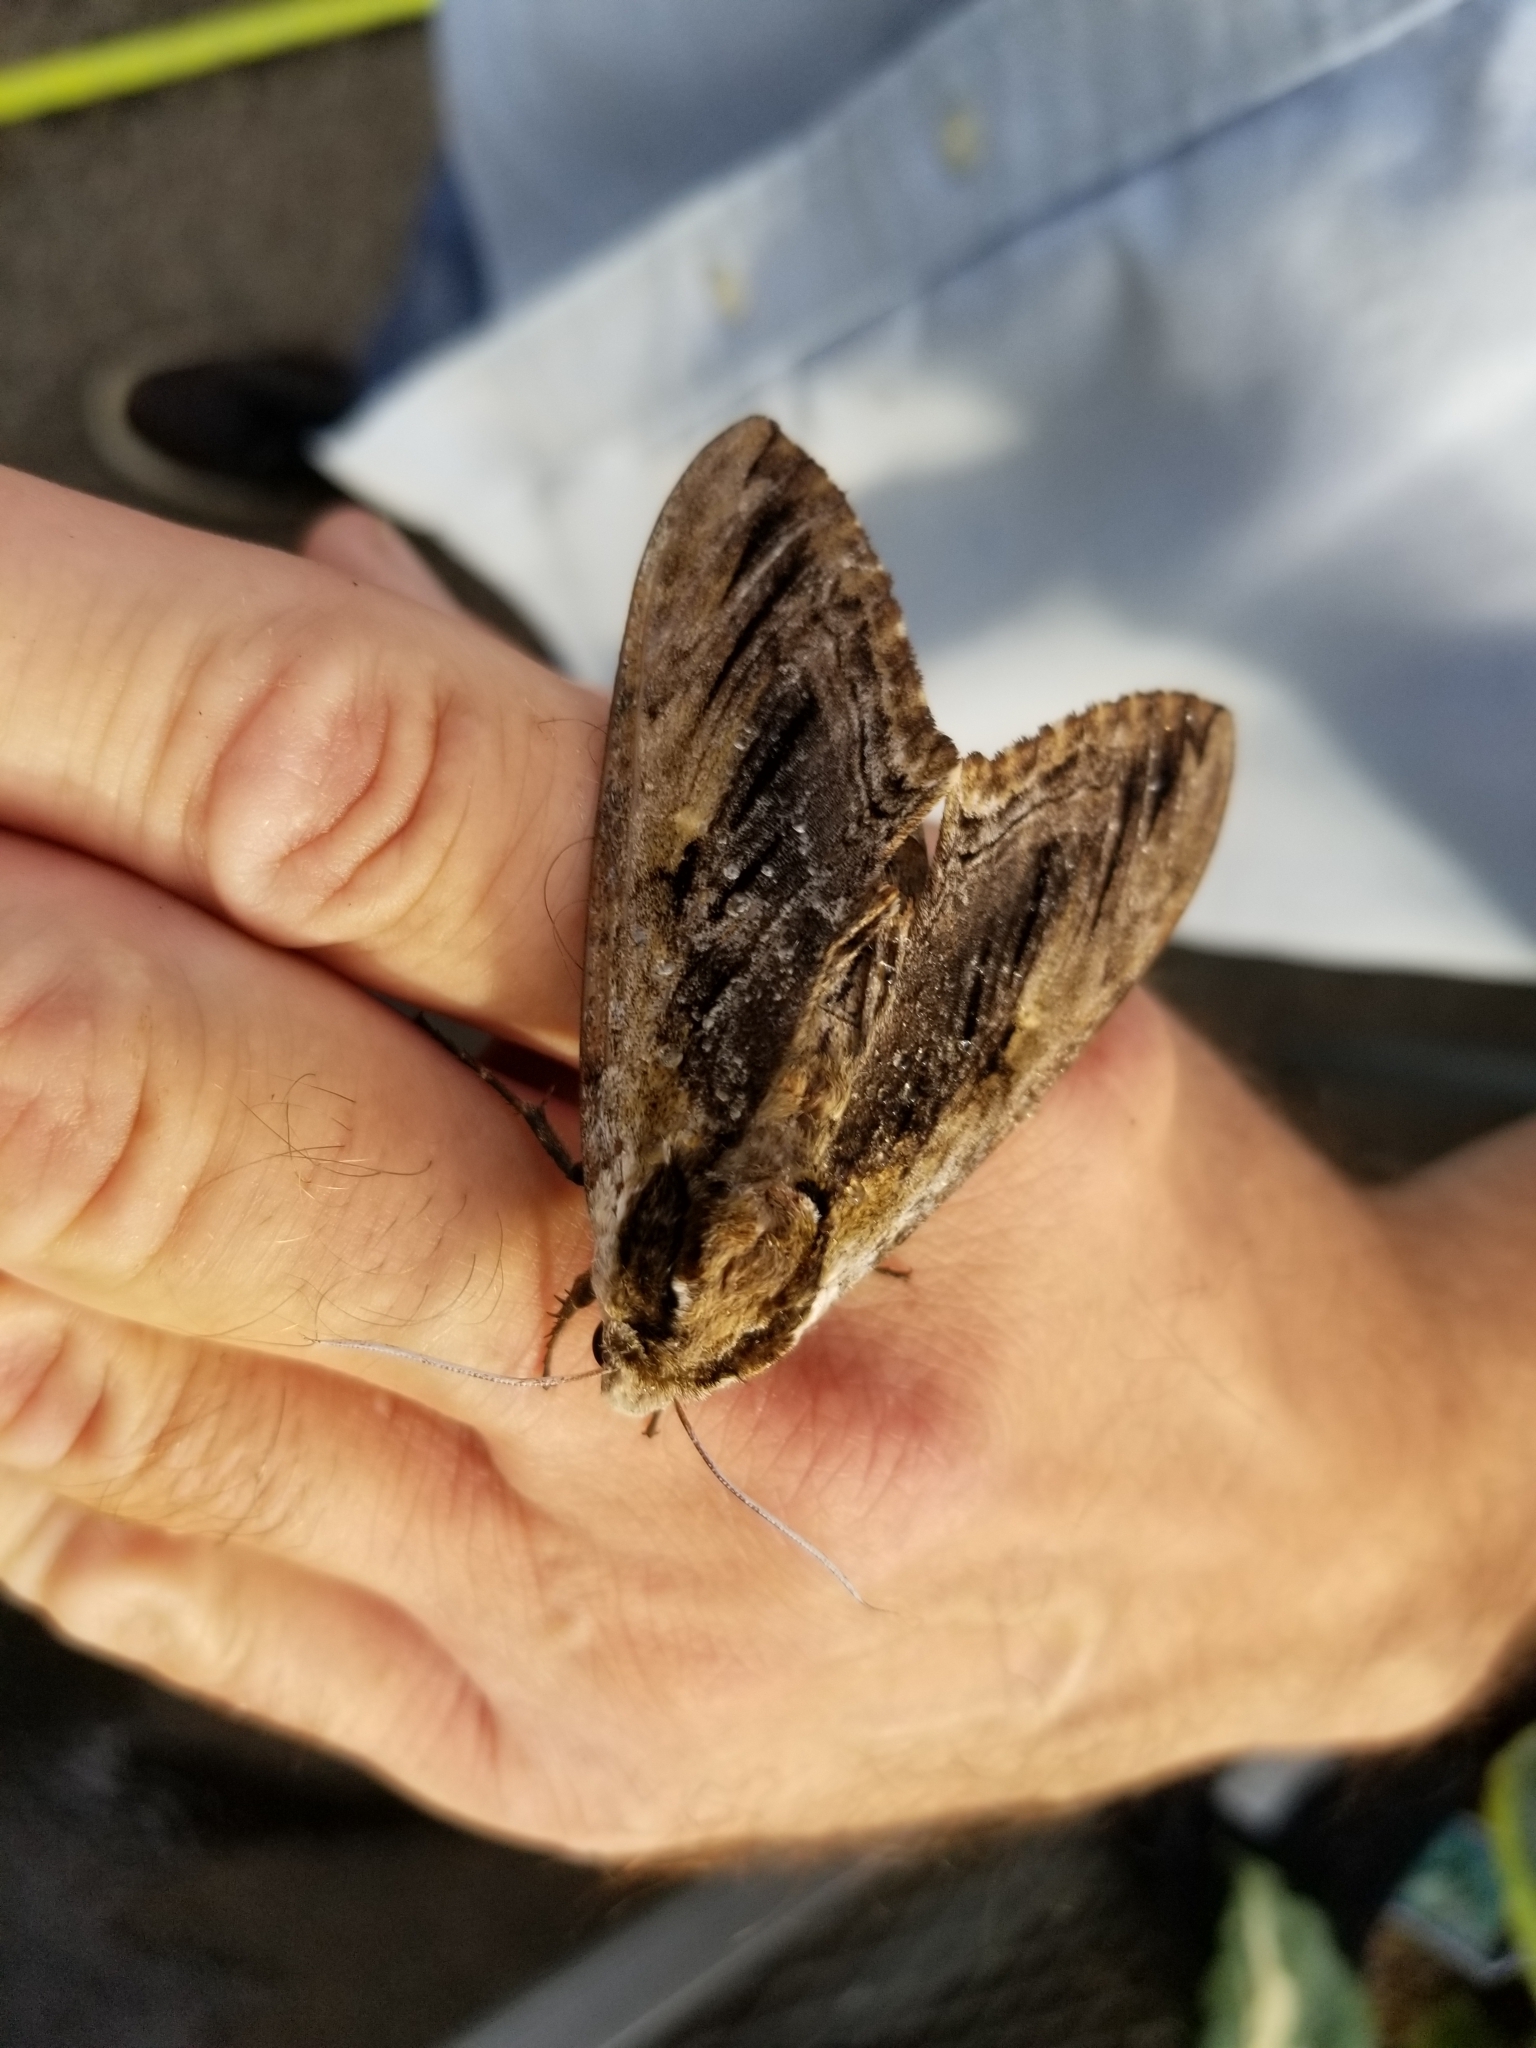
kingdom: Animalia
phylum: Arthropoda
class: Insecta
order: Lepidoptera
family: Sphingidae
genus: Ceratomia
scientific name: Ceratomia amyntor
